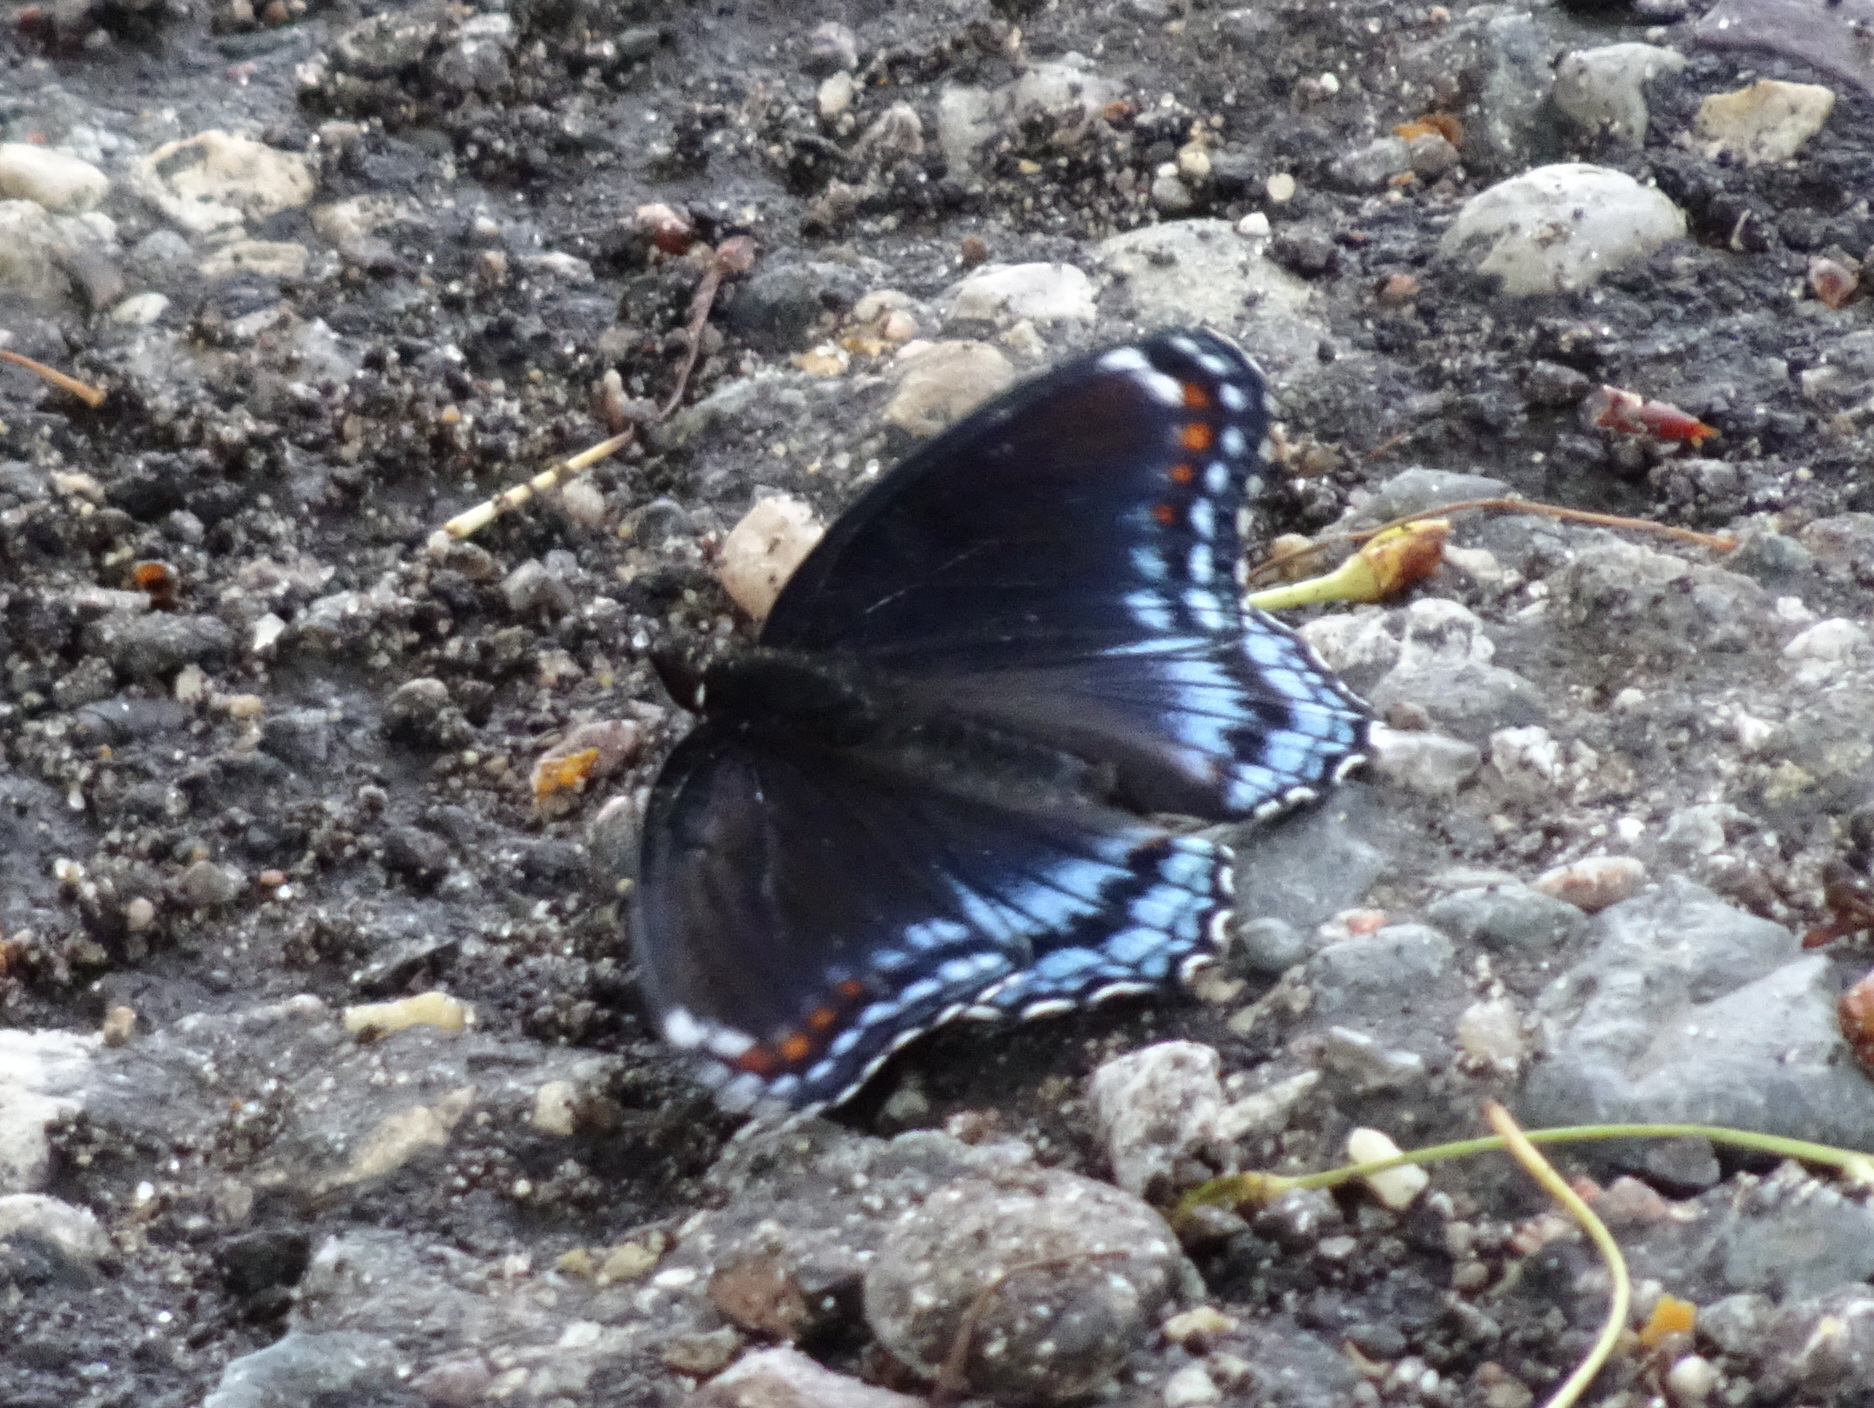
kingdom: Animalia
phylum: Arthropoda
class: Insecta
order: Lepidoptera
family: Nymphalidae
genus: Limenitis
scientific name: Limenitis astyanax
